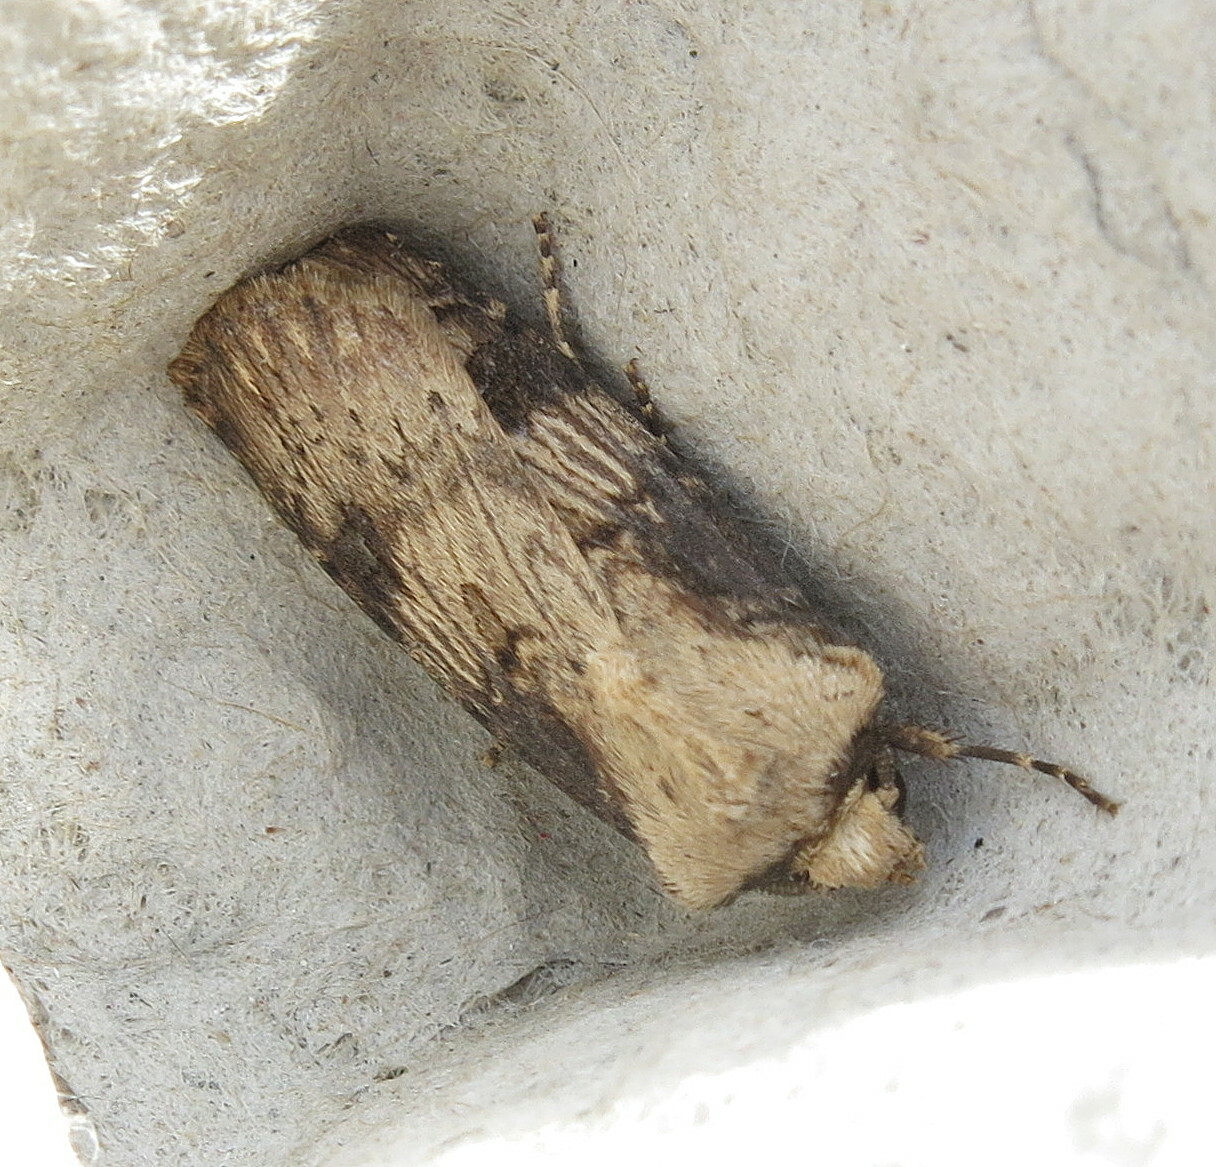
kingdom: Animalia
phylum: Arthropoda
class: Insecta
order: Lepidoptera
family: Noctuidae
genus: Agrotis
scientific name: Agrotis puta
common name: Shuttle-shaped dart
